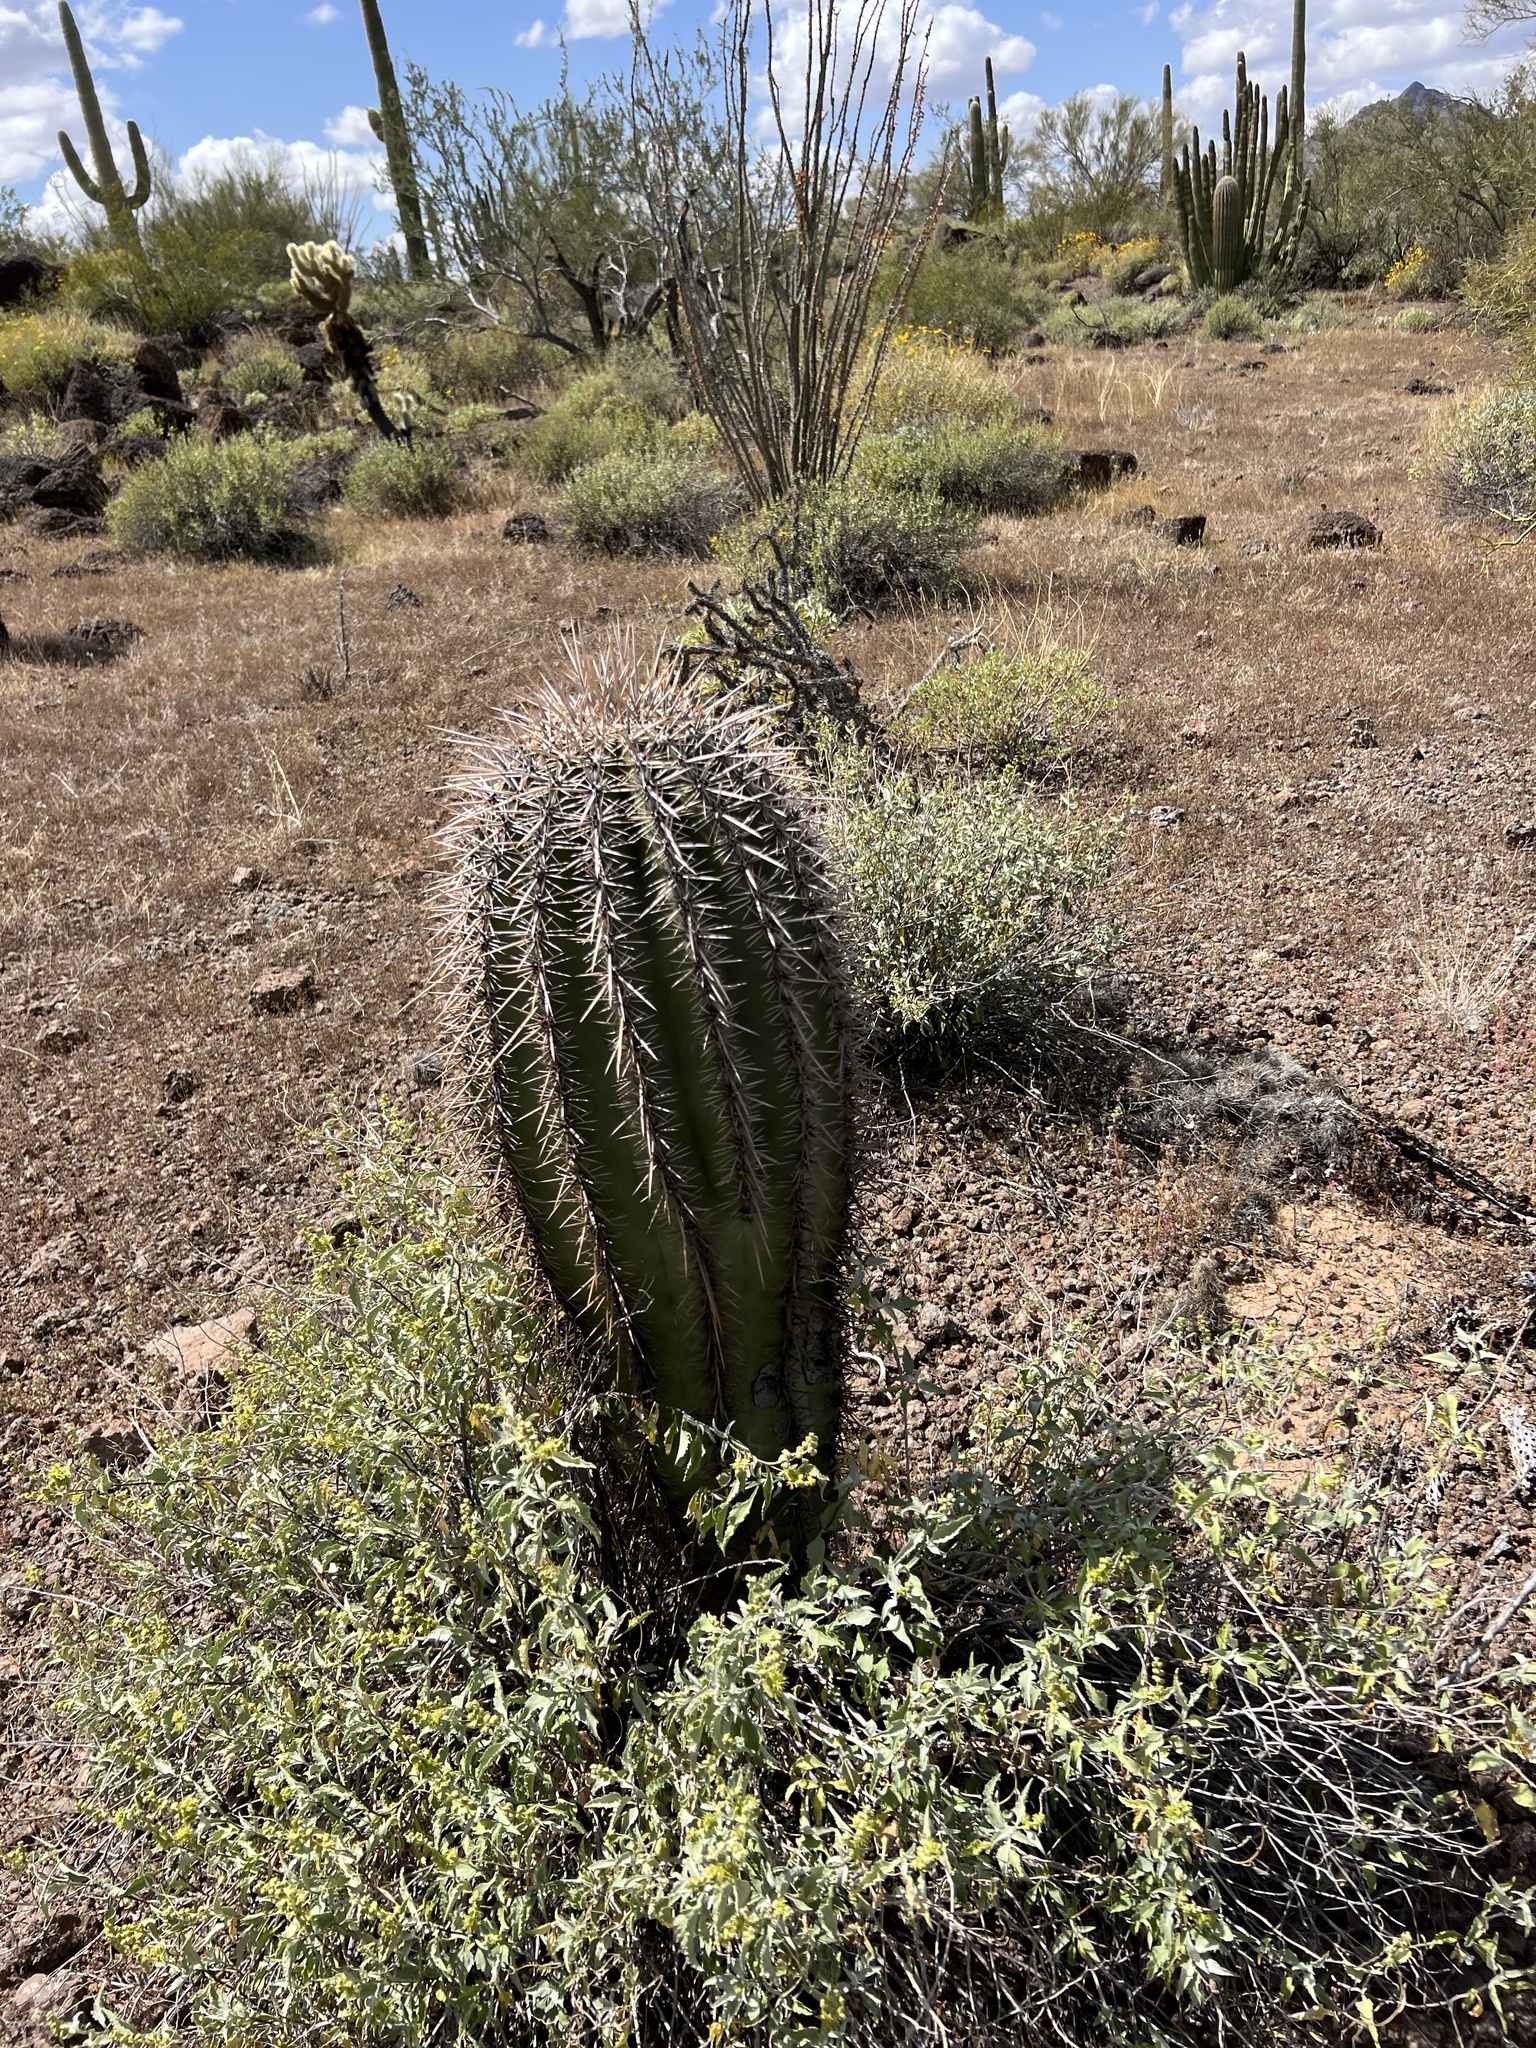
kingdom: Plantae
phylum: Tracheophyta
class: Magnoliopsida
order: Caryophyllales
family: Cactaceae
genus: Carnegiea
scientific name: Carnegiea gigantea
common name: Saguaro
